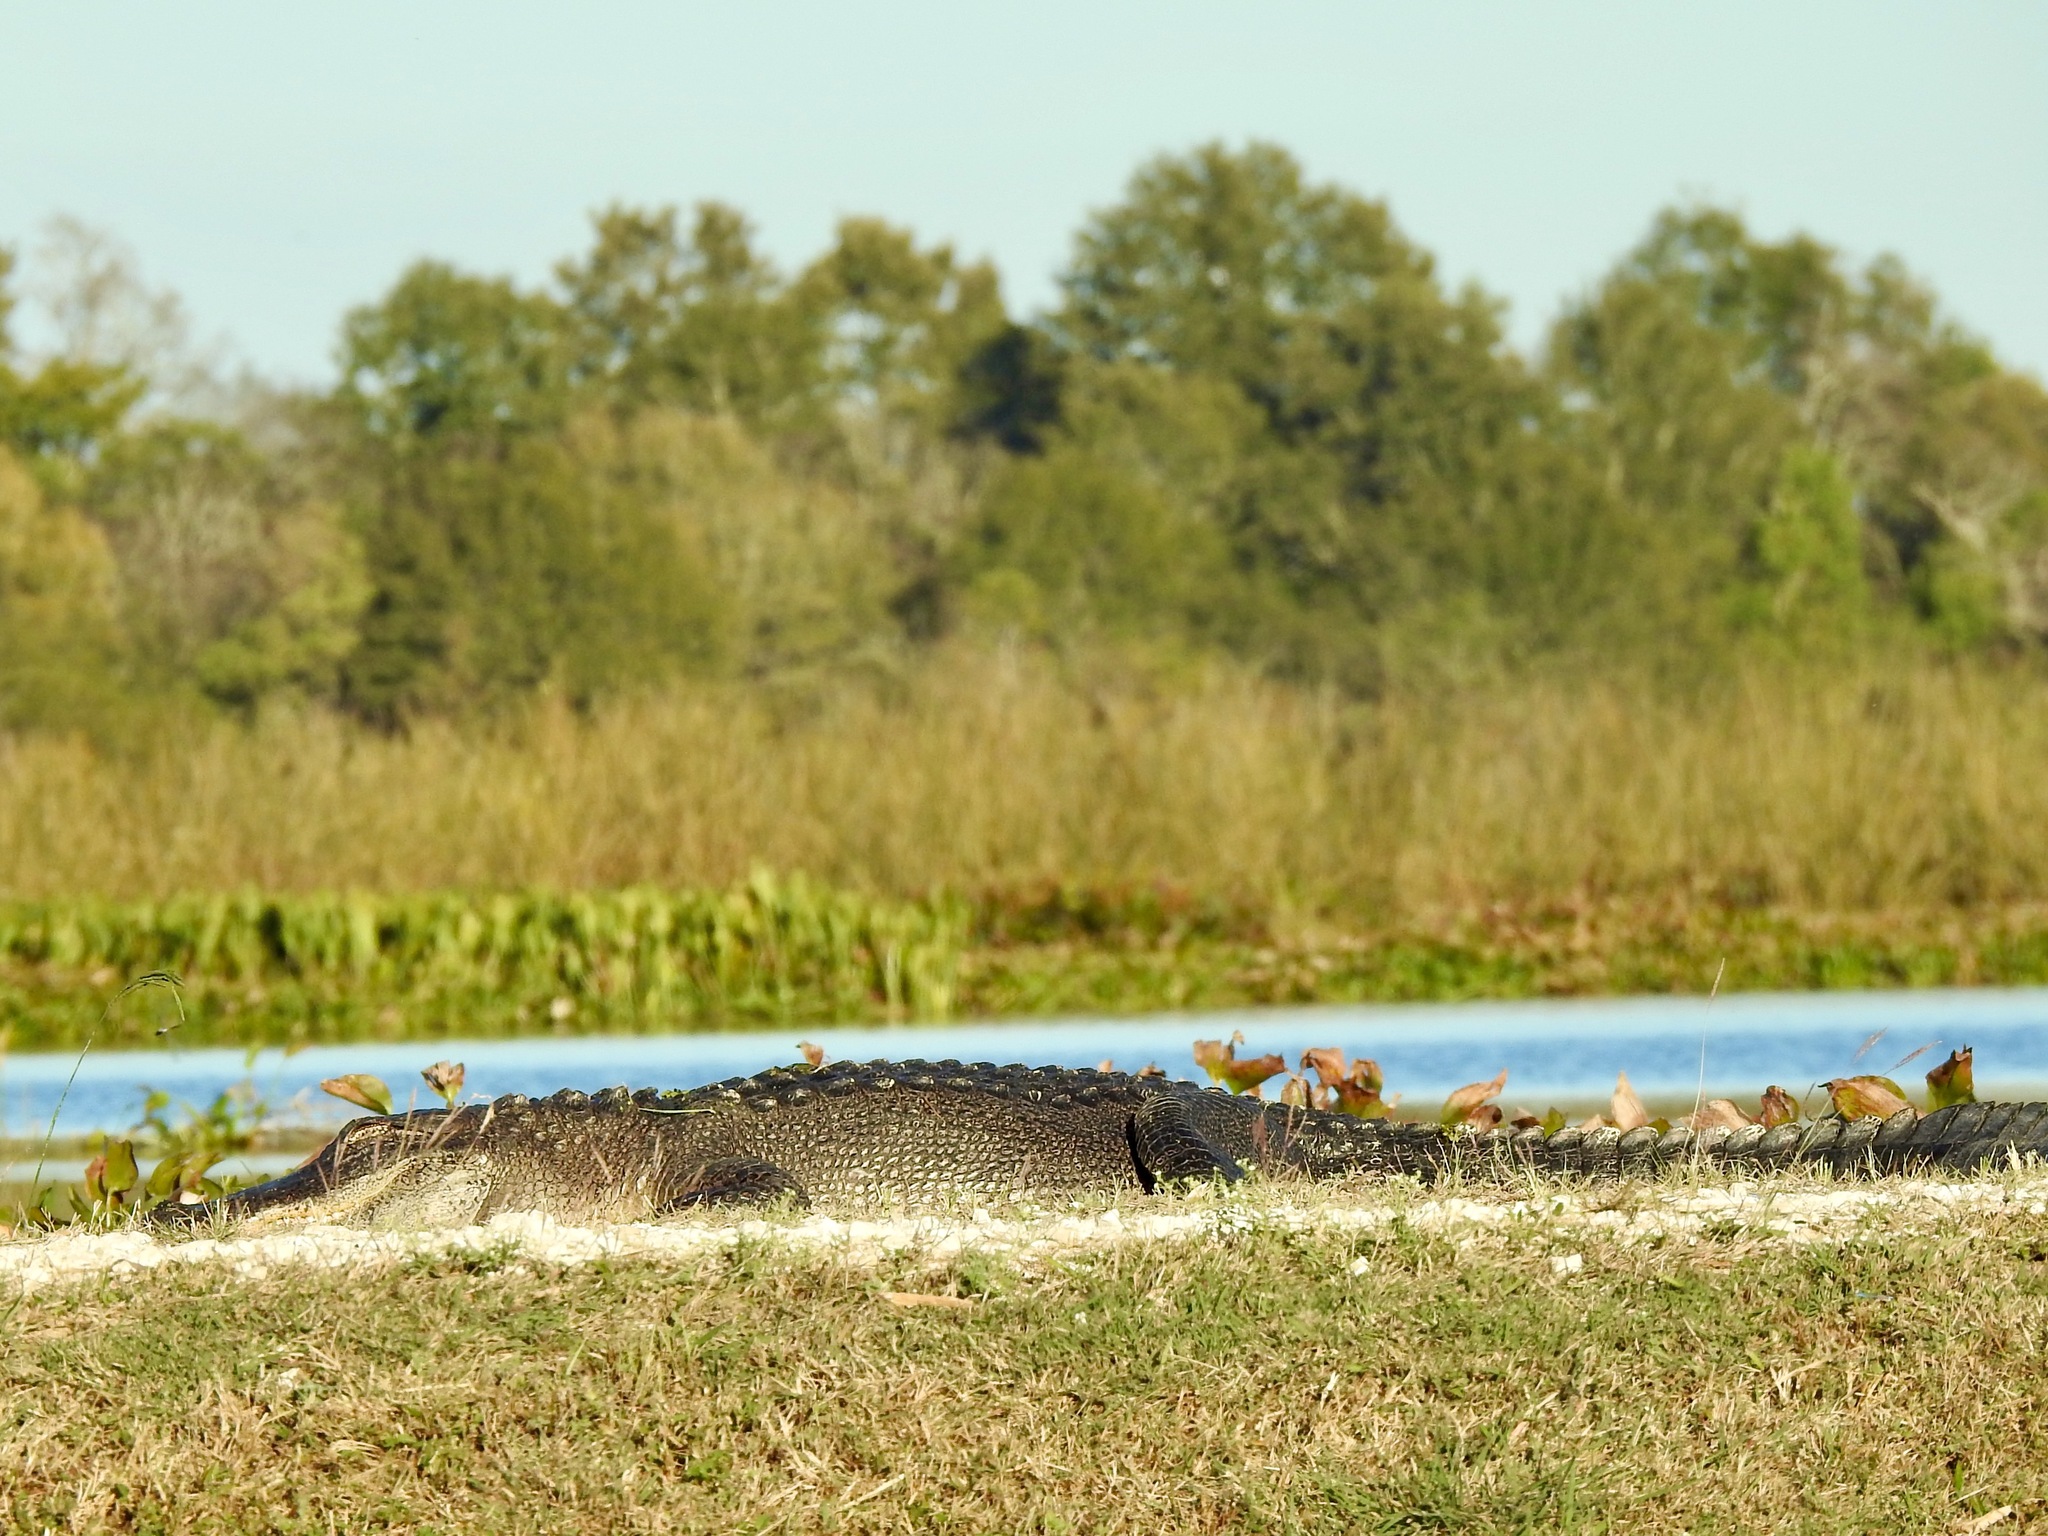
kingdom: Animalia
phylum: Chordata
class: Crocodylia
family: Alligatoridae
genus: Alligator
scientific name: Alligator mississippiensis
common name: American alligator
